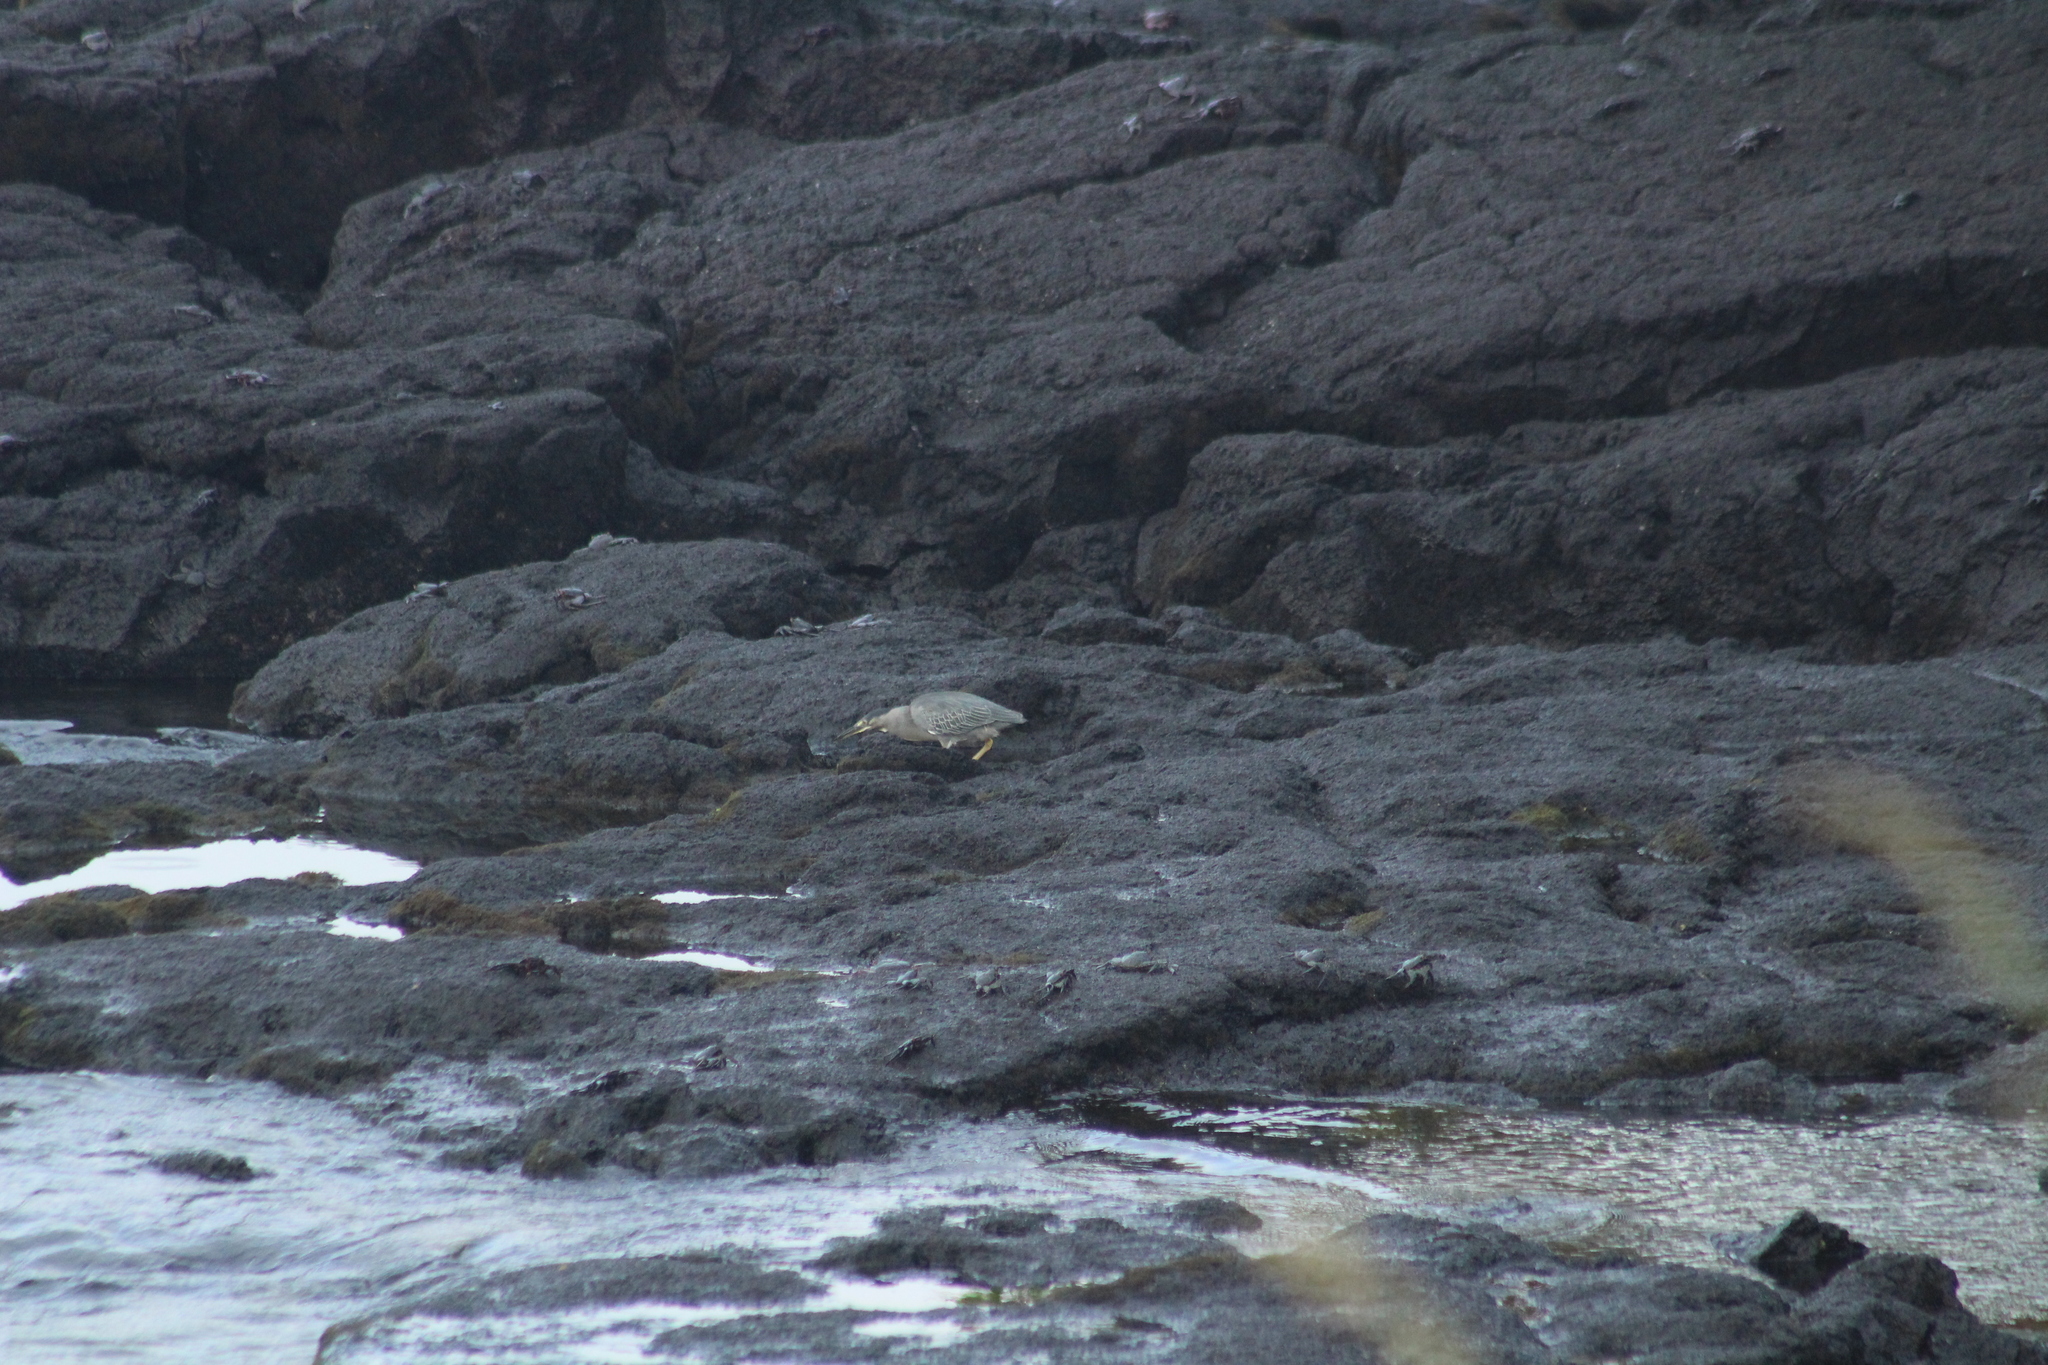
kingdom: Animalia
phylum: Chordata
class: Aves
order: Pelecaniformes
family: Ardeidae
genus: Butorides
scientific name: Butorides striata
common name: Striated heron
